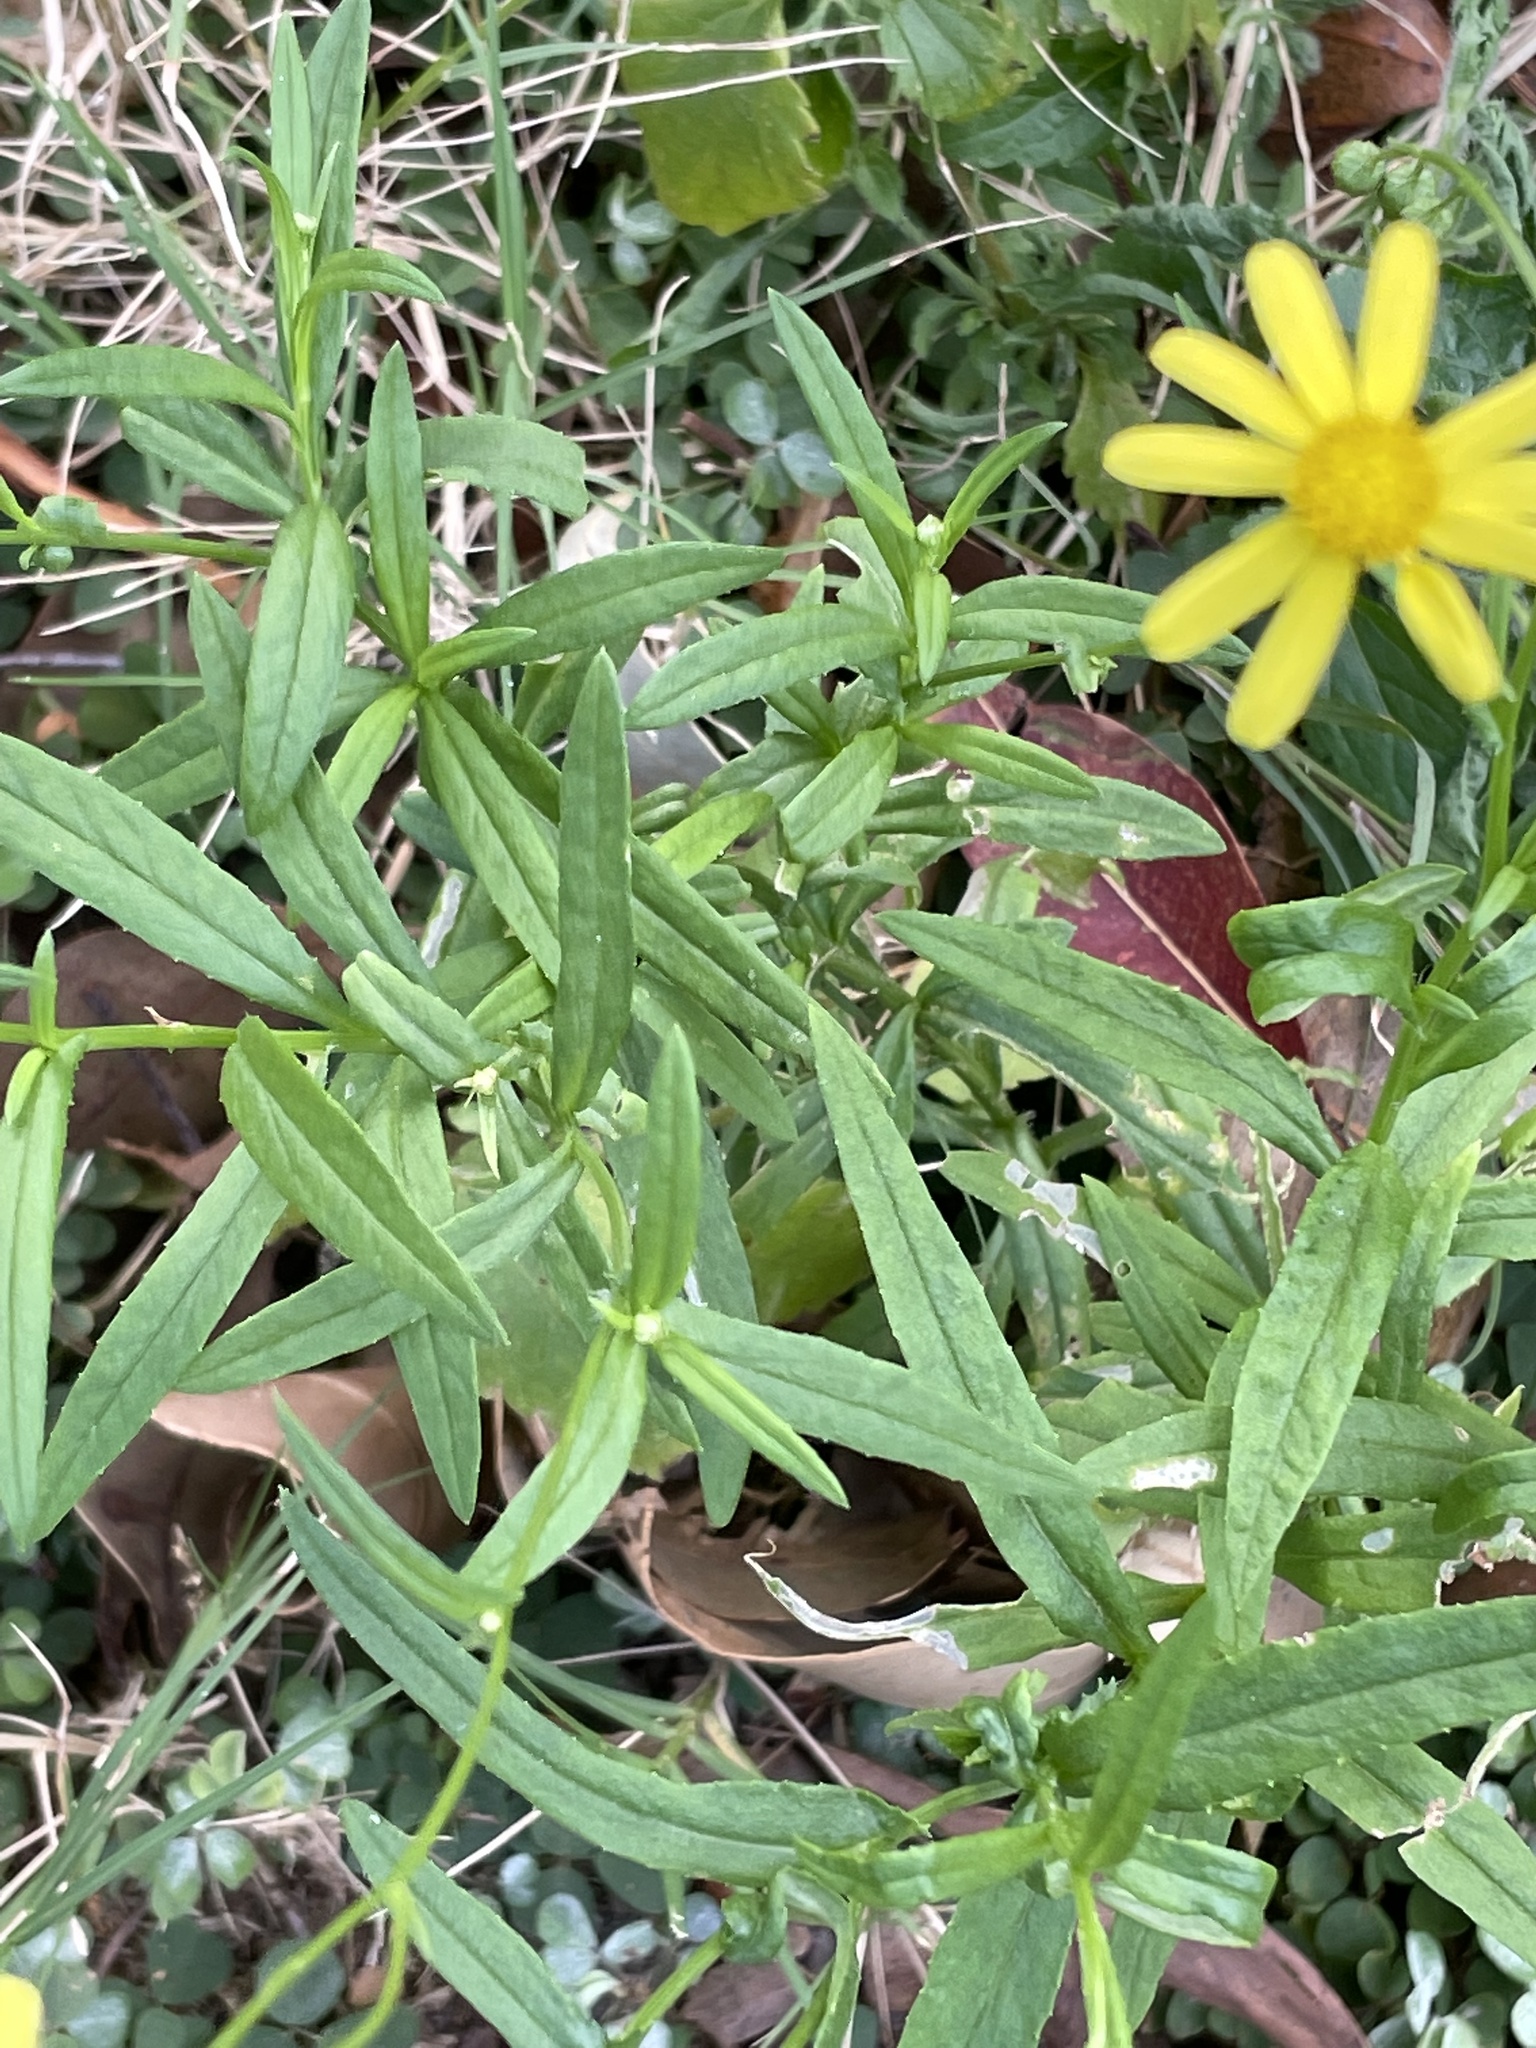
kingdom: Plantae
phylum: Tracheophyta
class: Magnoliopsida
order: Asterales
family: Asteraceae
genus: Senecio
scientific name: Senecio madagascariensis
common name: Madagascar ragwort
